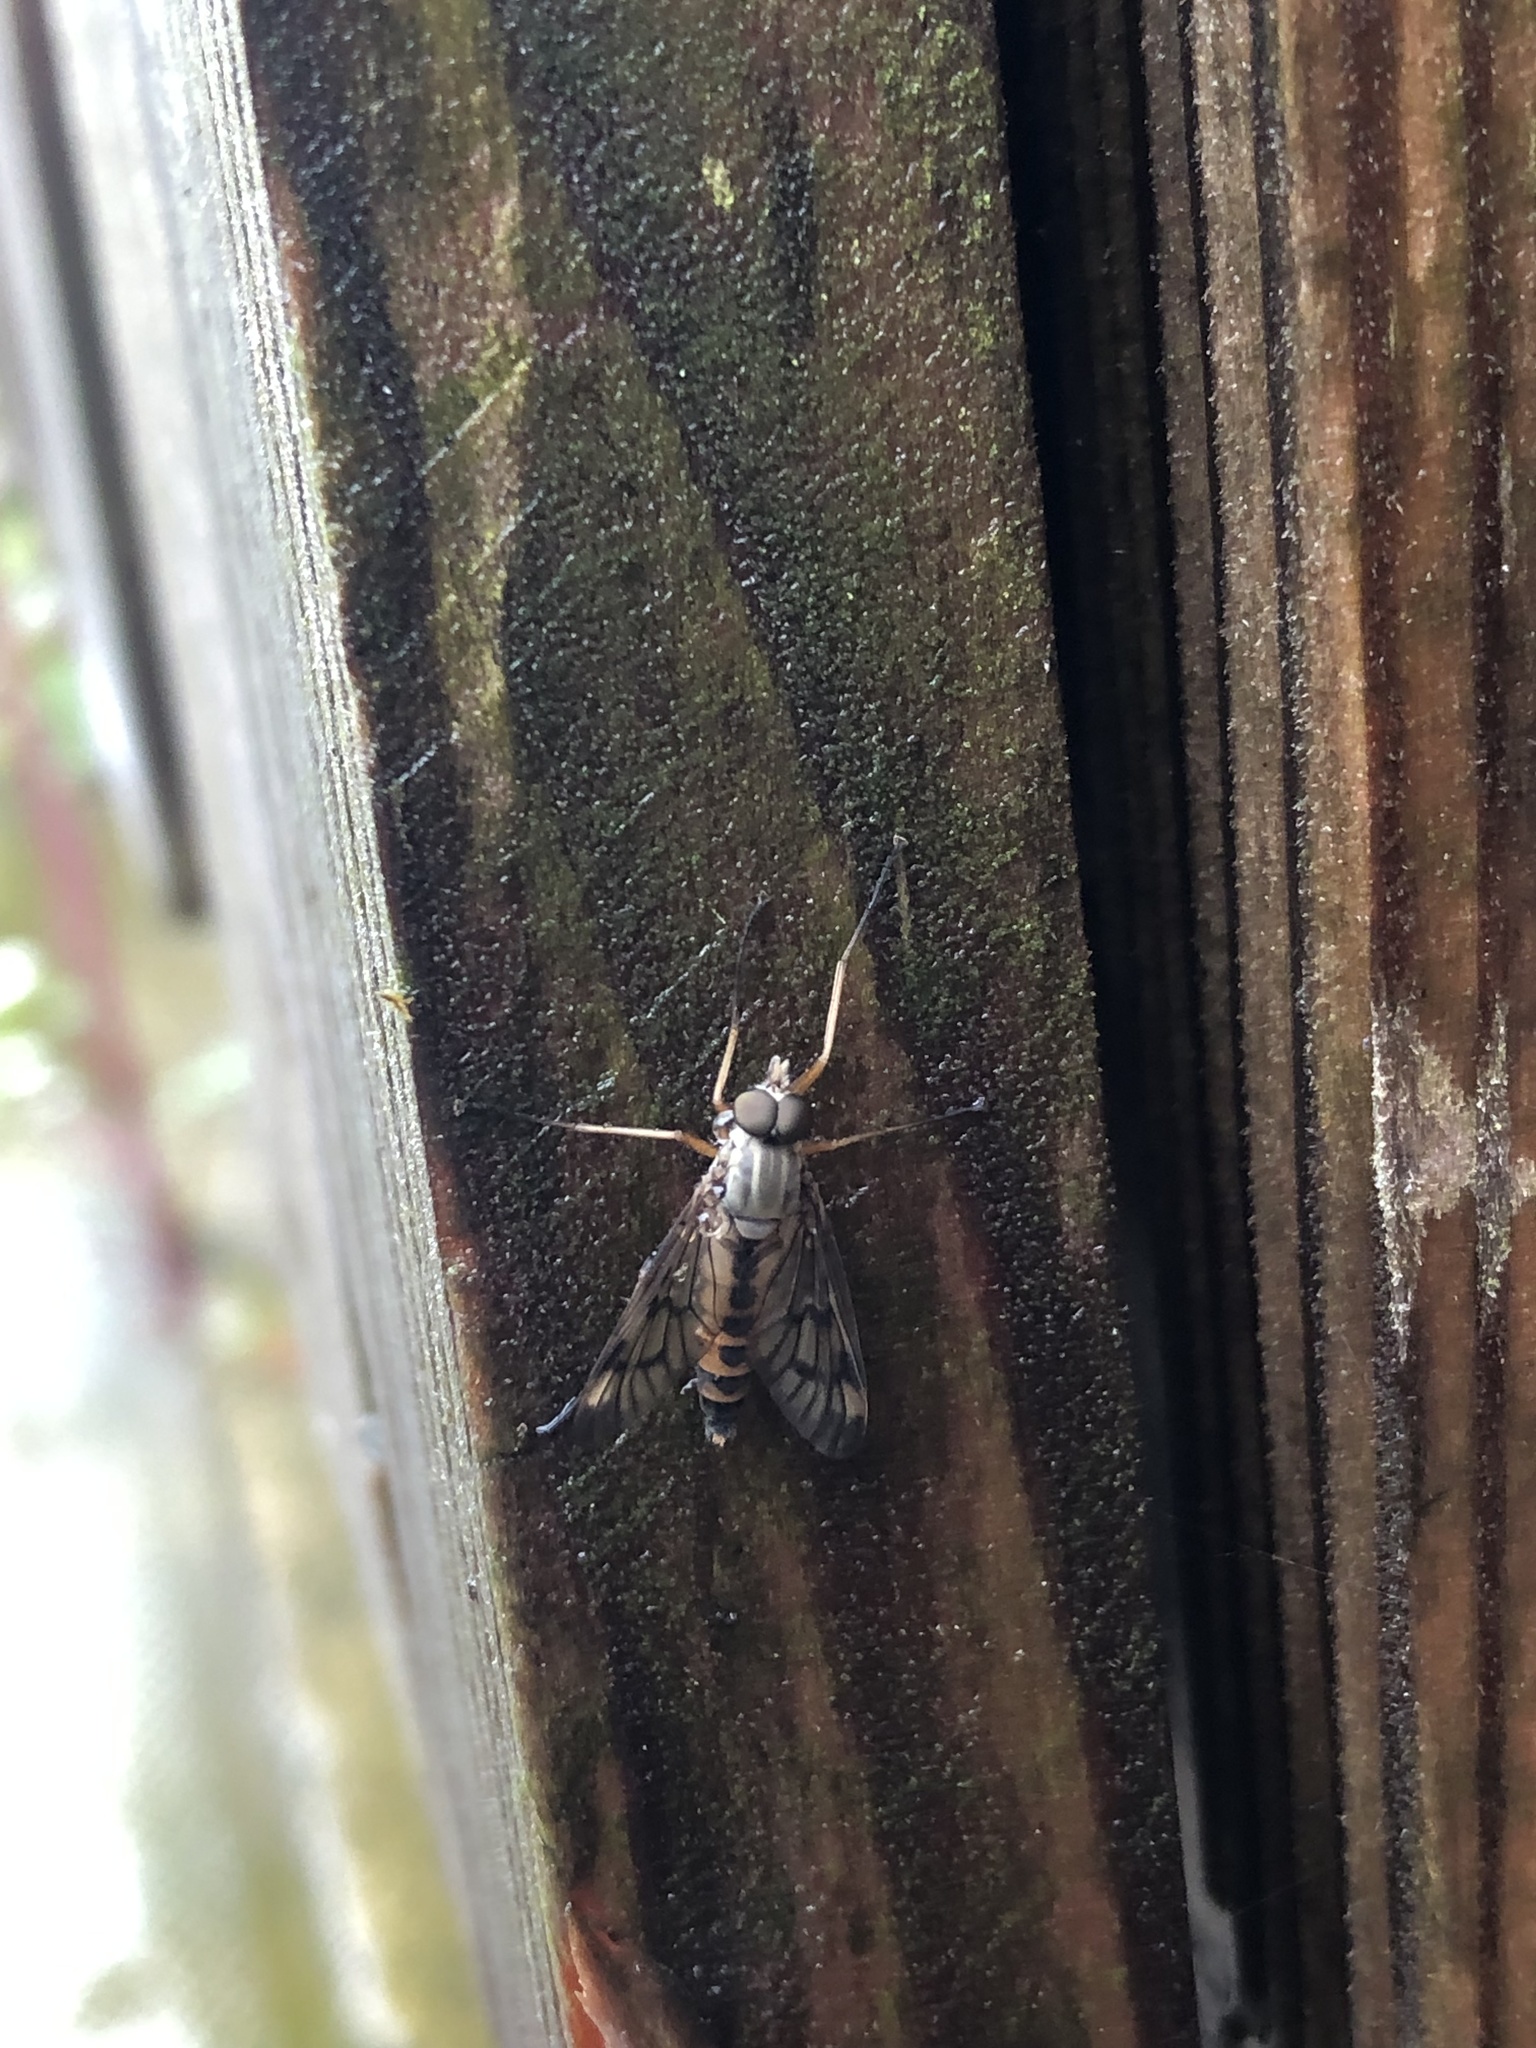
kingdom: Animalia
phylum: Arthropoda
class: Insecta
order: Diptera
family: Rhagionidae
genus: Rhagio
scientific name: Rhagio scolopacea
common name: Downlooker snipefly
